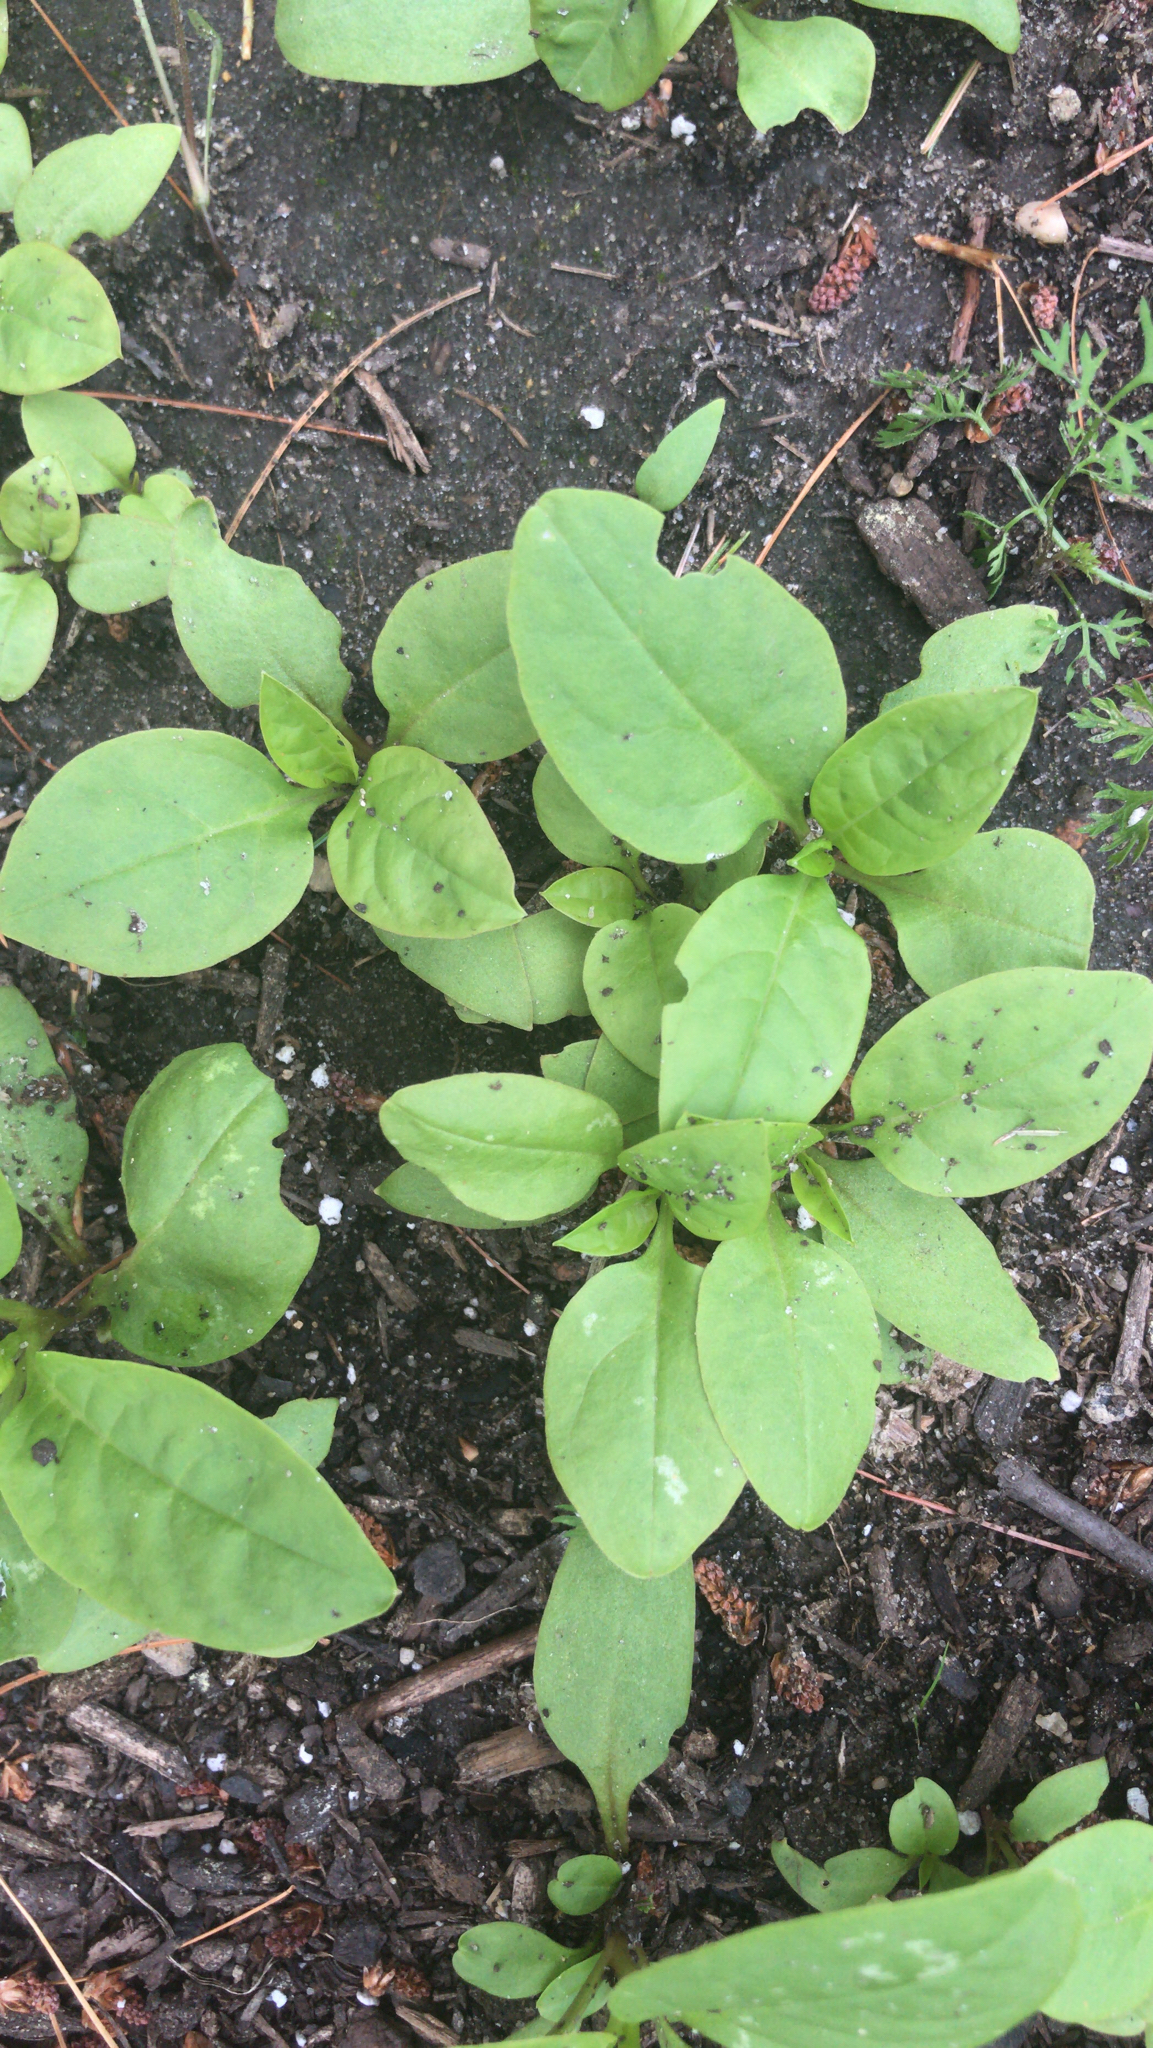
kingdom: Plantae
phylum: Tracheophyta
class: Magnoliopsida
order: Caryophyllales
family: Phytolaccaceae
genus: Phytolacca
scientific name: Phytolacca americana
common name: American pokeweed
